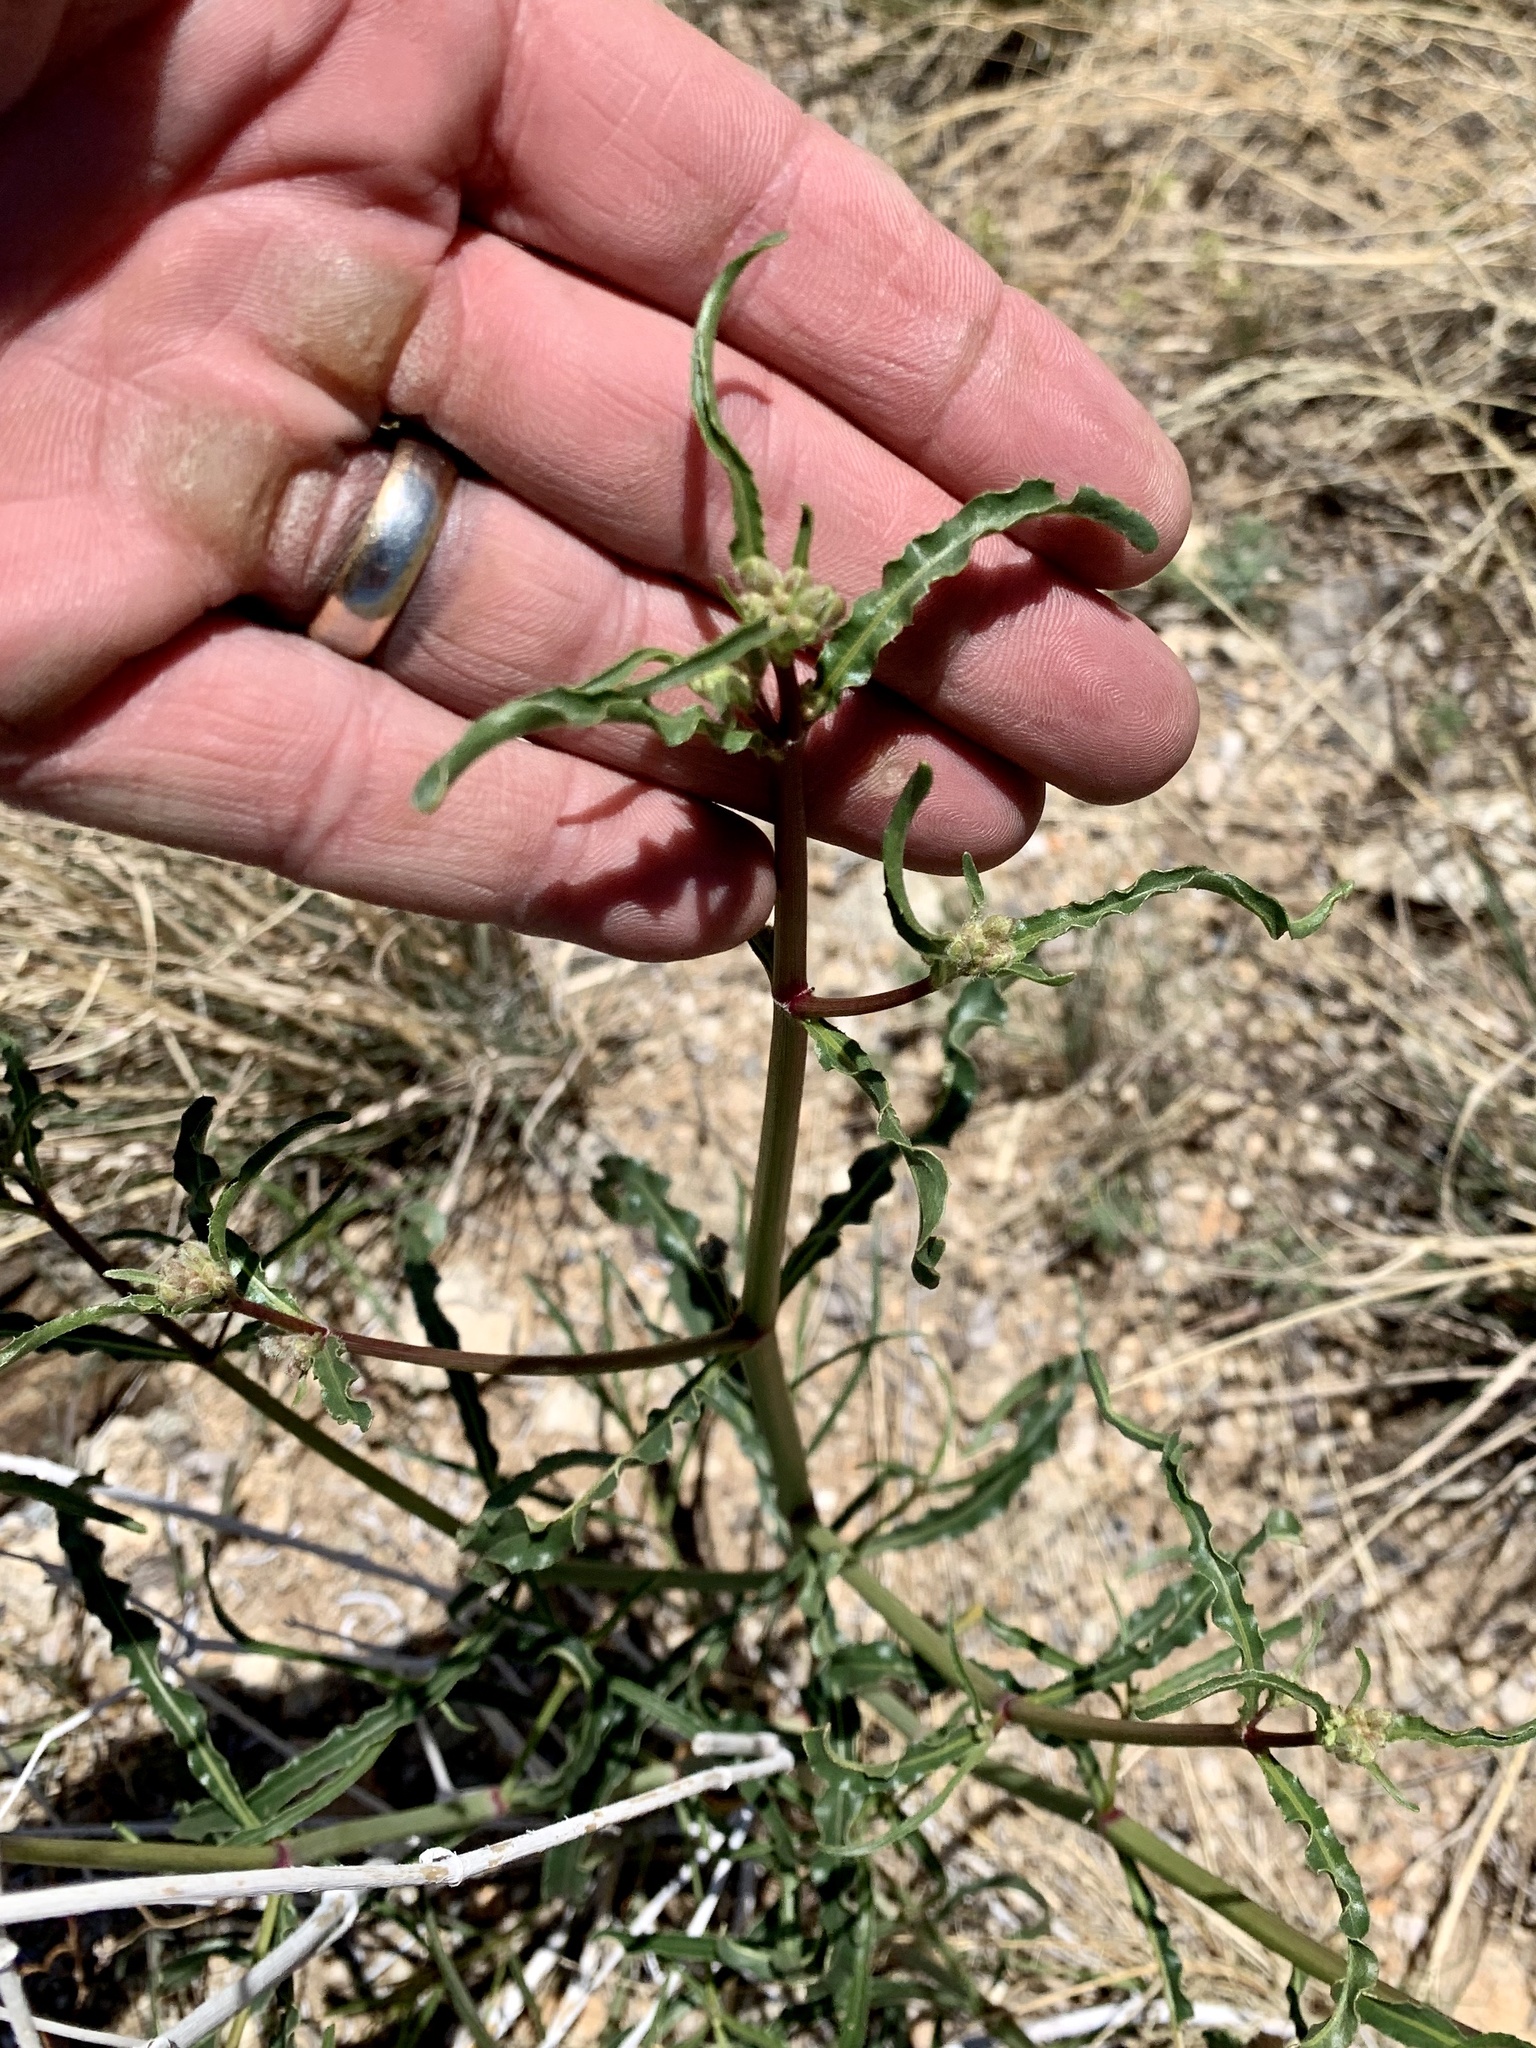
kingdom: Plantae
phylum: Tracheophyta
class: Magnoliopsida
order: Caryophyllales
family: Nyctaginaceae
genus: Mirabilis
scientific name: Mirabilis linearis
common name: Linear-leaved four-o'clock
